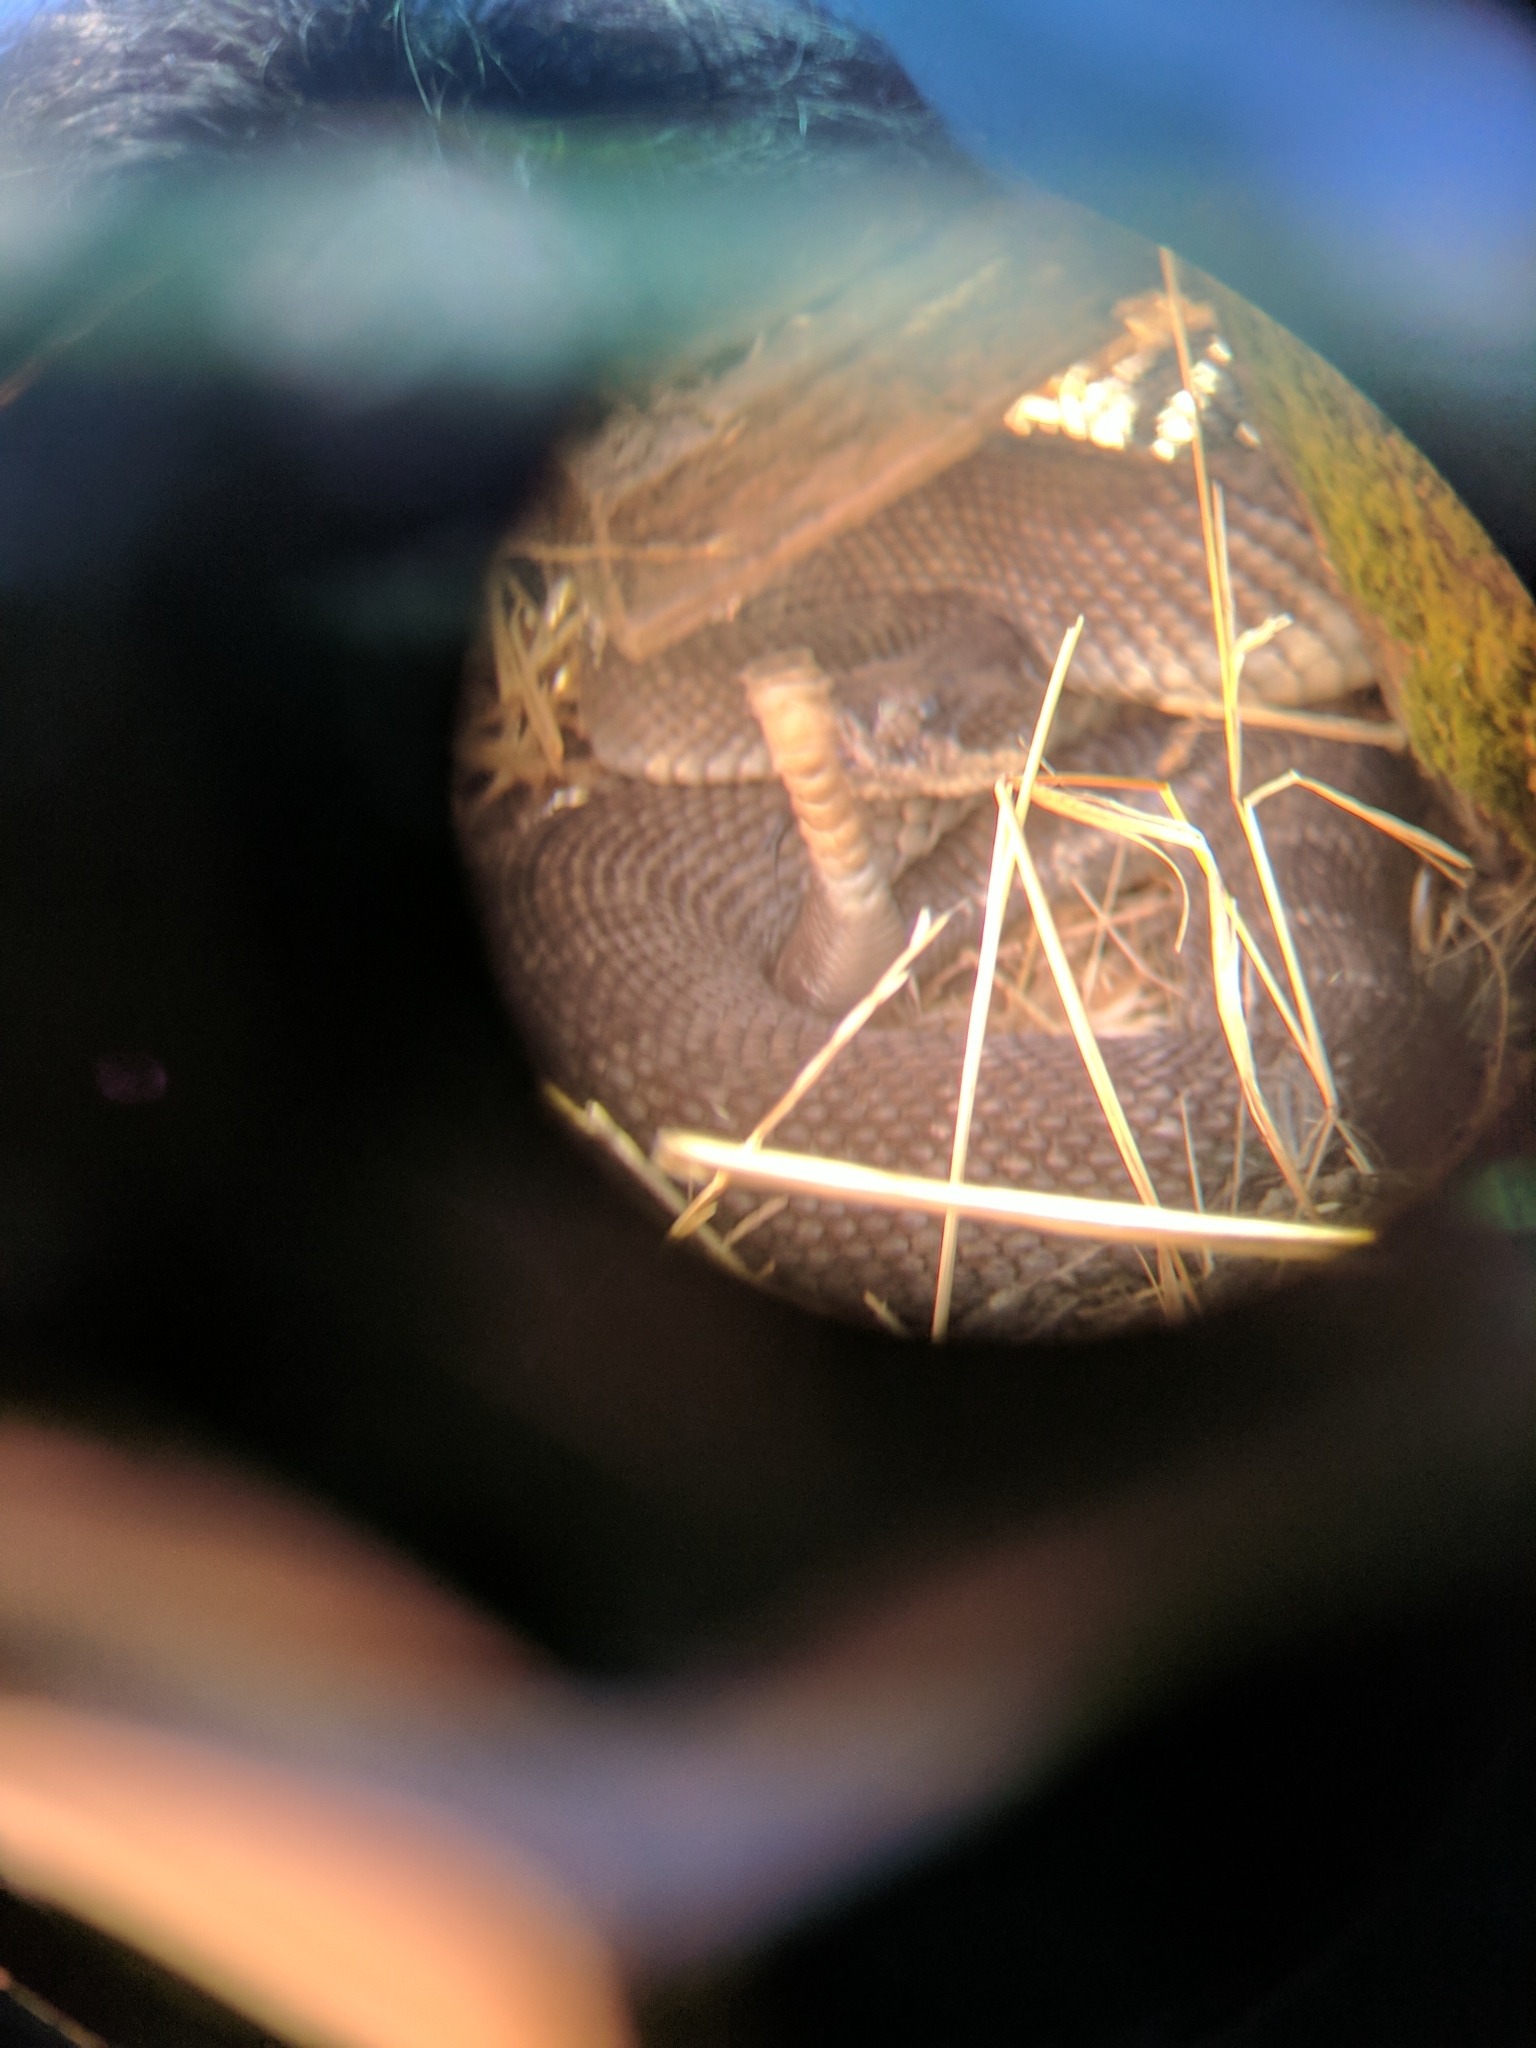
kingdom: Animalia
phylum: Chordata
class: Squamata
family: Viperidae
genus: Crotalus
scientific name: Crotalus oreganus
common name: Abyssus
